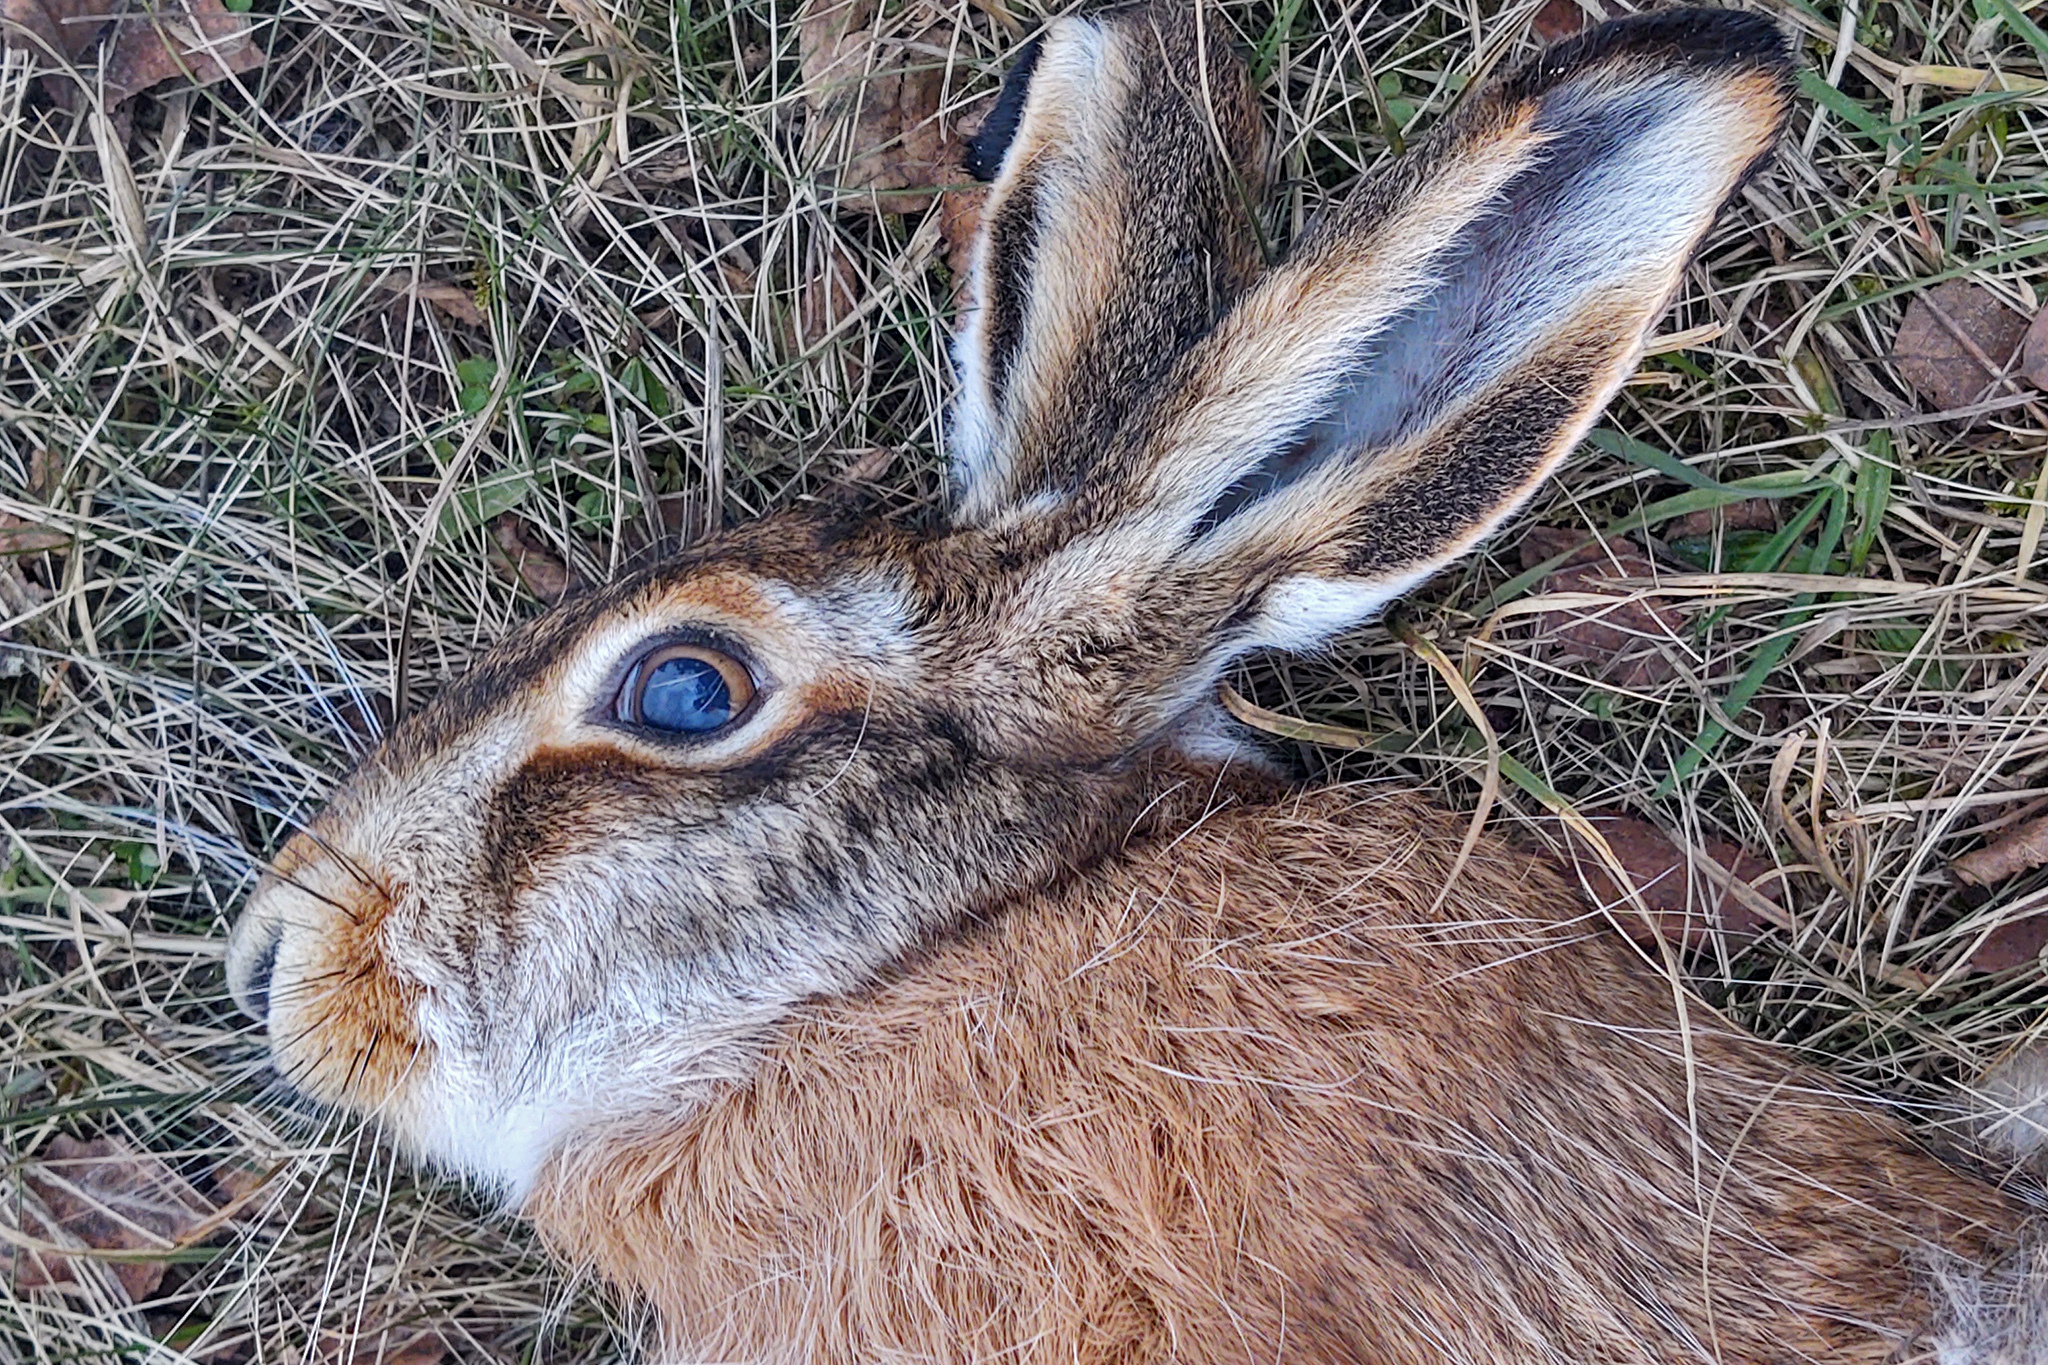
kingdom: Animalia
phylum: Chordata
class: Mammalia
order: Lagomorpha
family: Leporidae
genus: Lepus
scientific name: Lepus europaeus
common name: European hare
